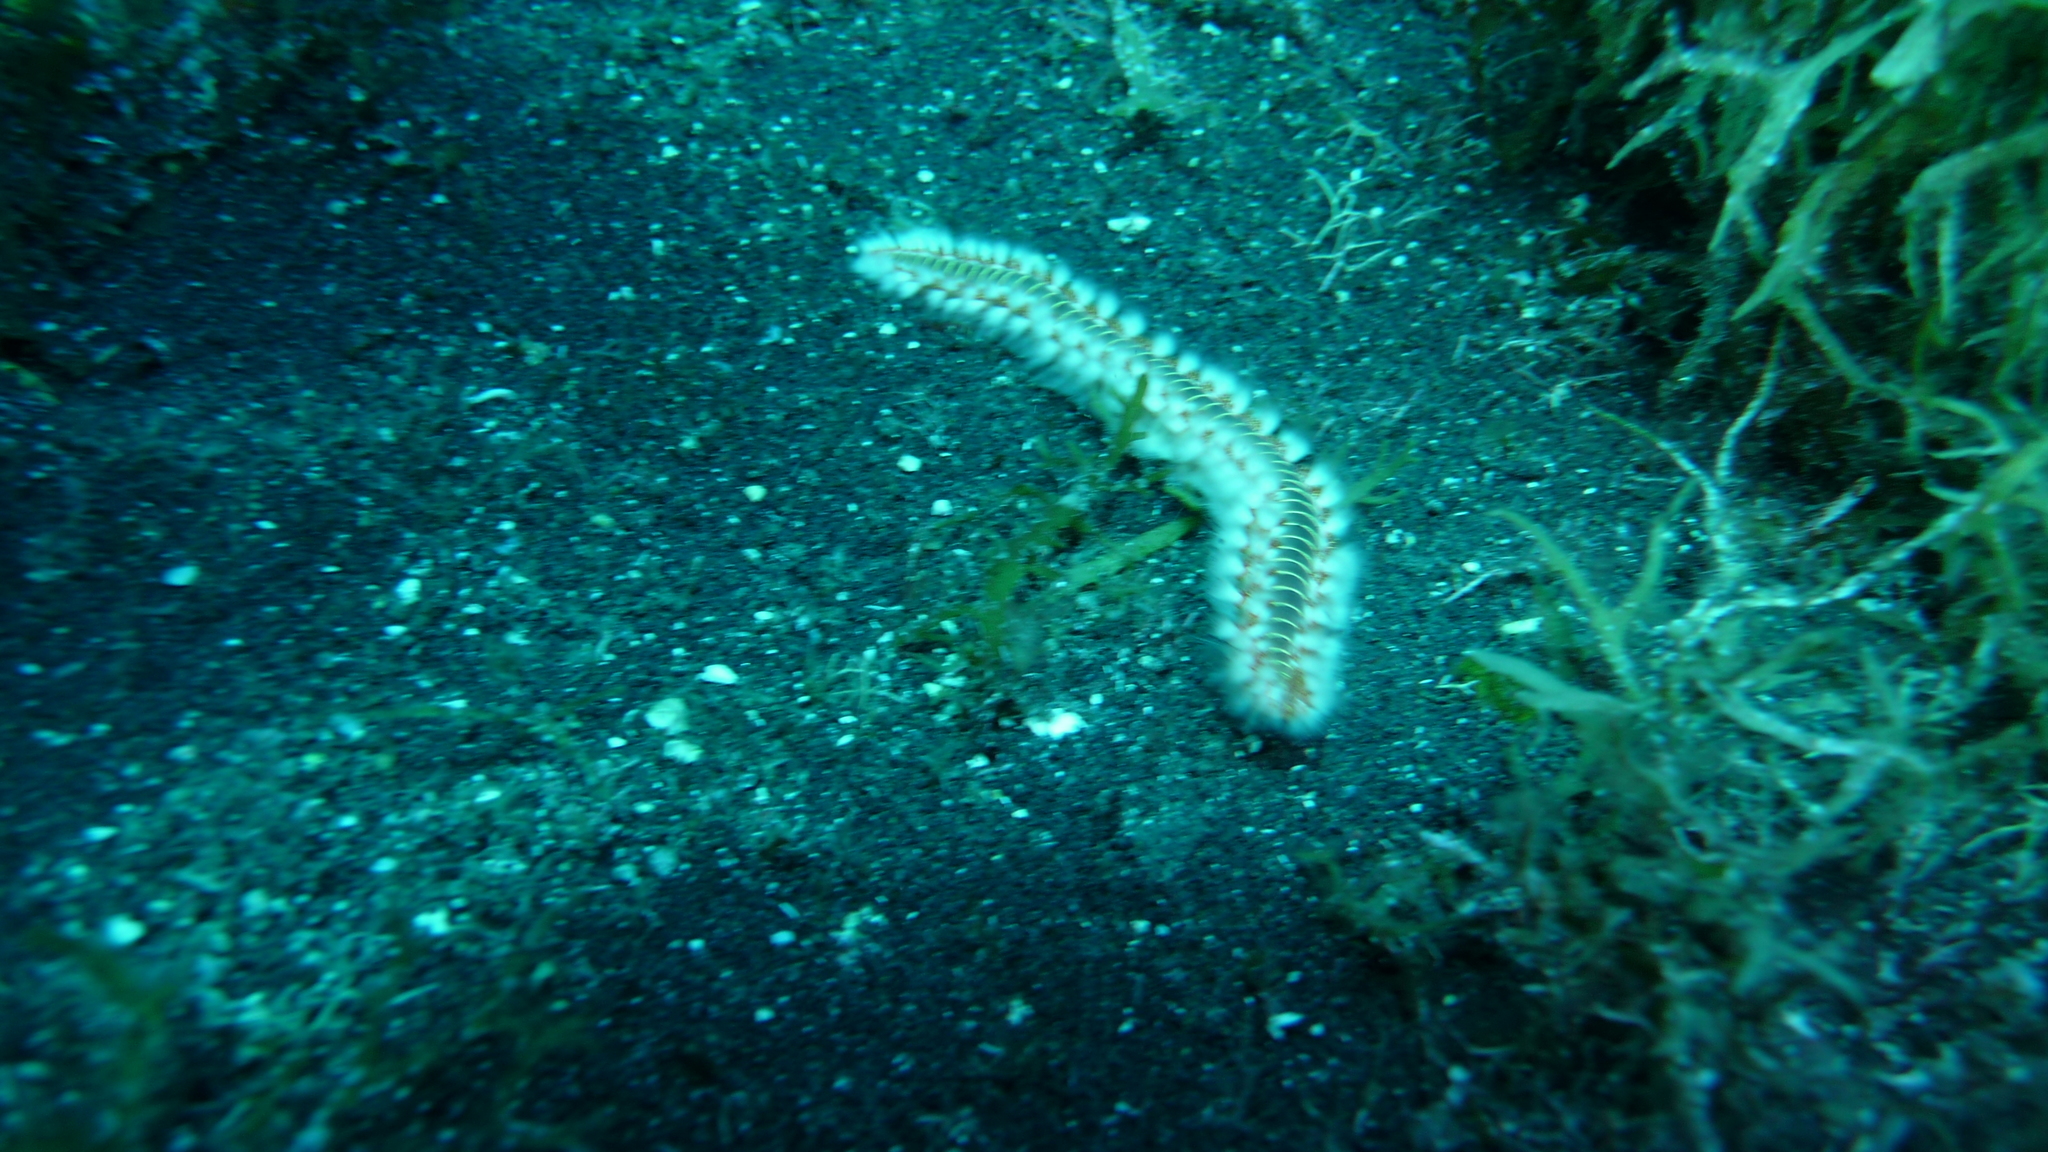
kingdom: Animalia
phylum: Annelida
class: Polychaeta
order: Amphinomida
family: Amphinomidae
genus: Hermodice
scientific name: Hermodice carunculata
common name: Bearded fireworm
